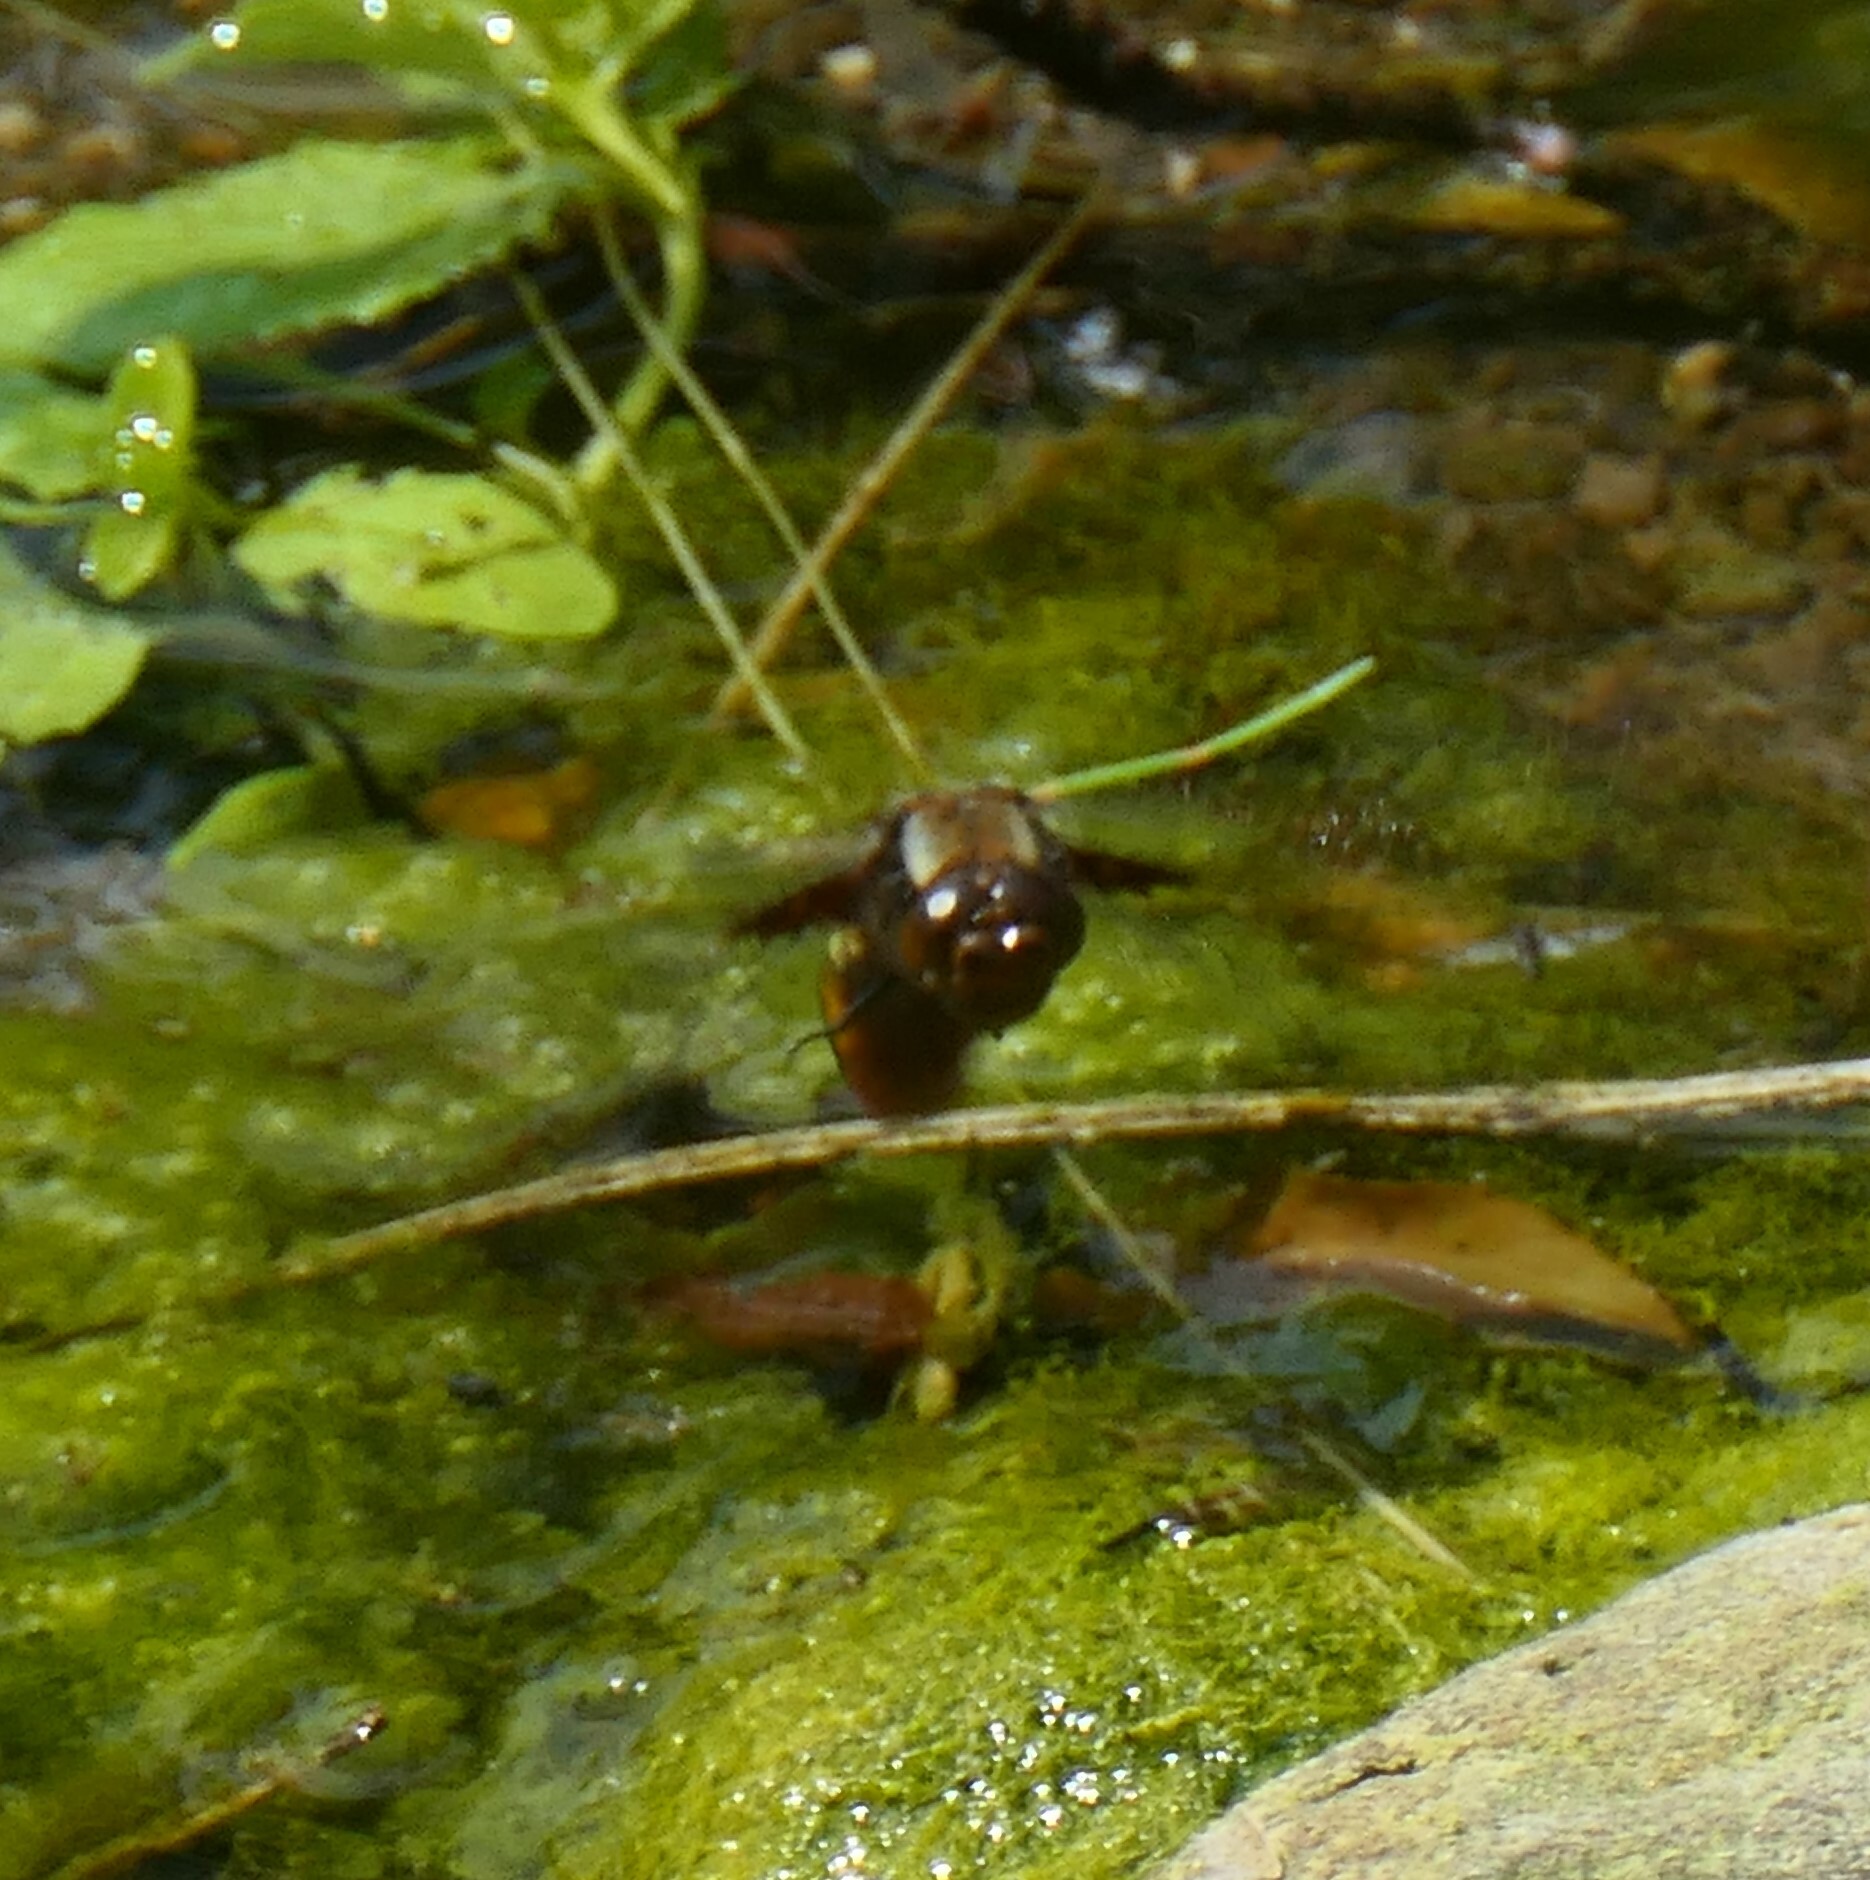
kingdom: Animalia
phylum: Arthropoda
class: Insecta
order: Odonata
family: Libellulidae
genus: Libellula
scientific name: Libellula depressa
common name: Broad-bodied chaser
